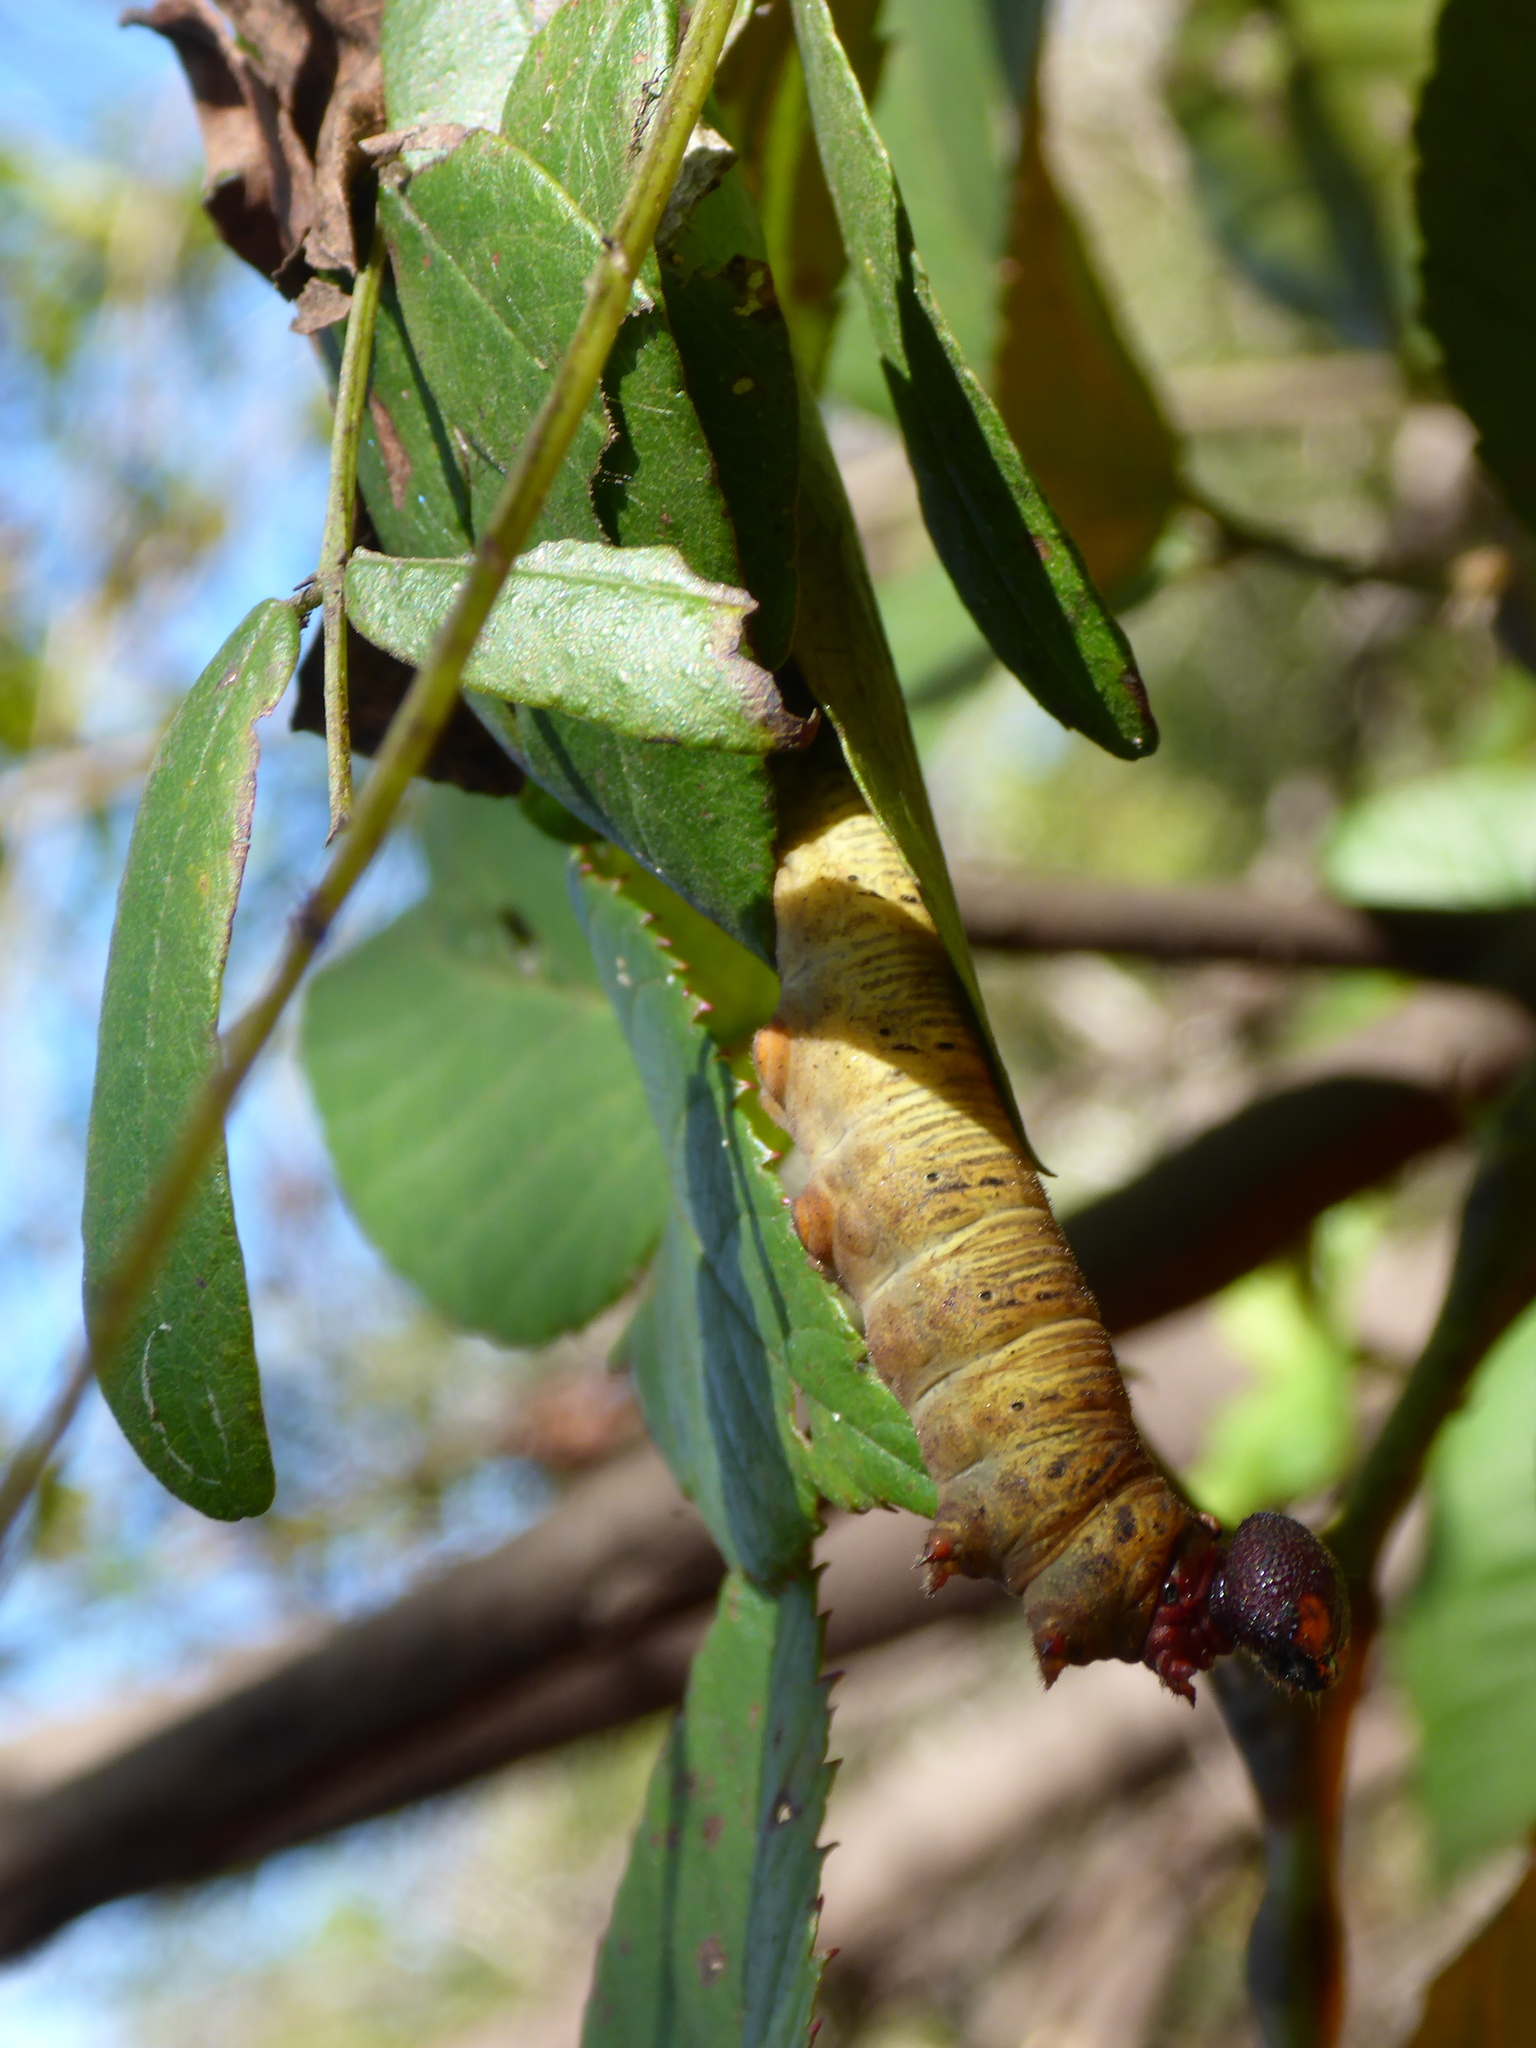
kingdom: Animalia
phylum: Arthropoda
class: Insecta
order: Lepidoptera
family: Hesperiidae
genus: Epargyreus
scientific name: Epargyreus clarus
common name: Silver-spotted skipper
